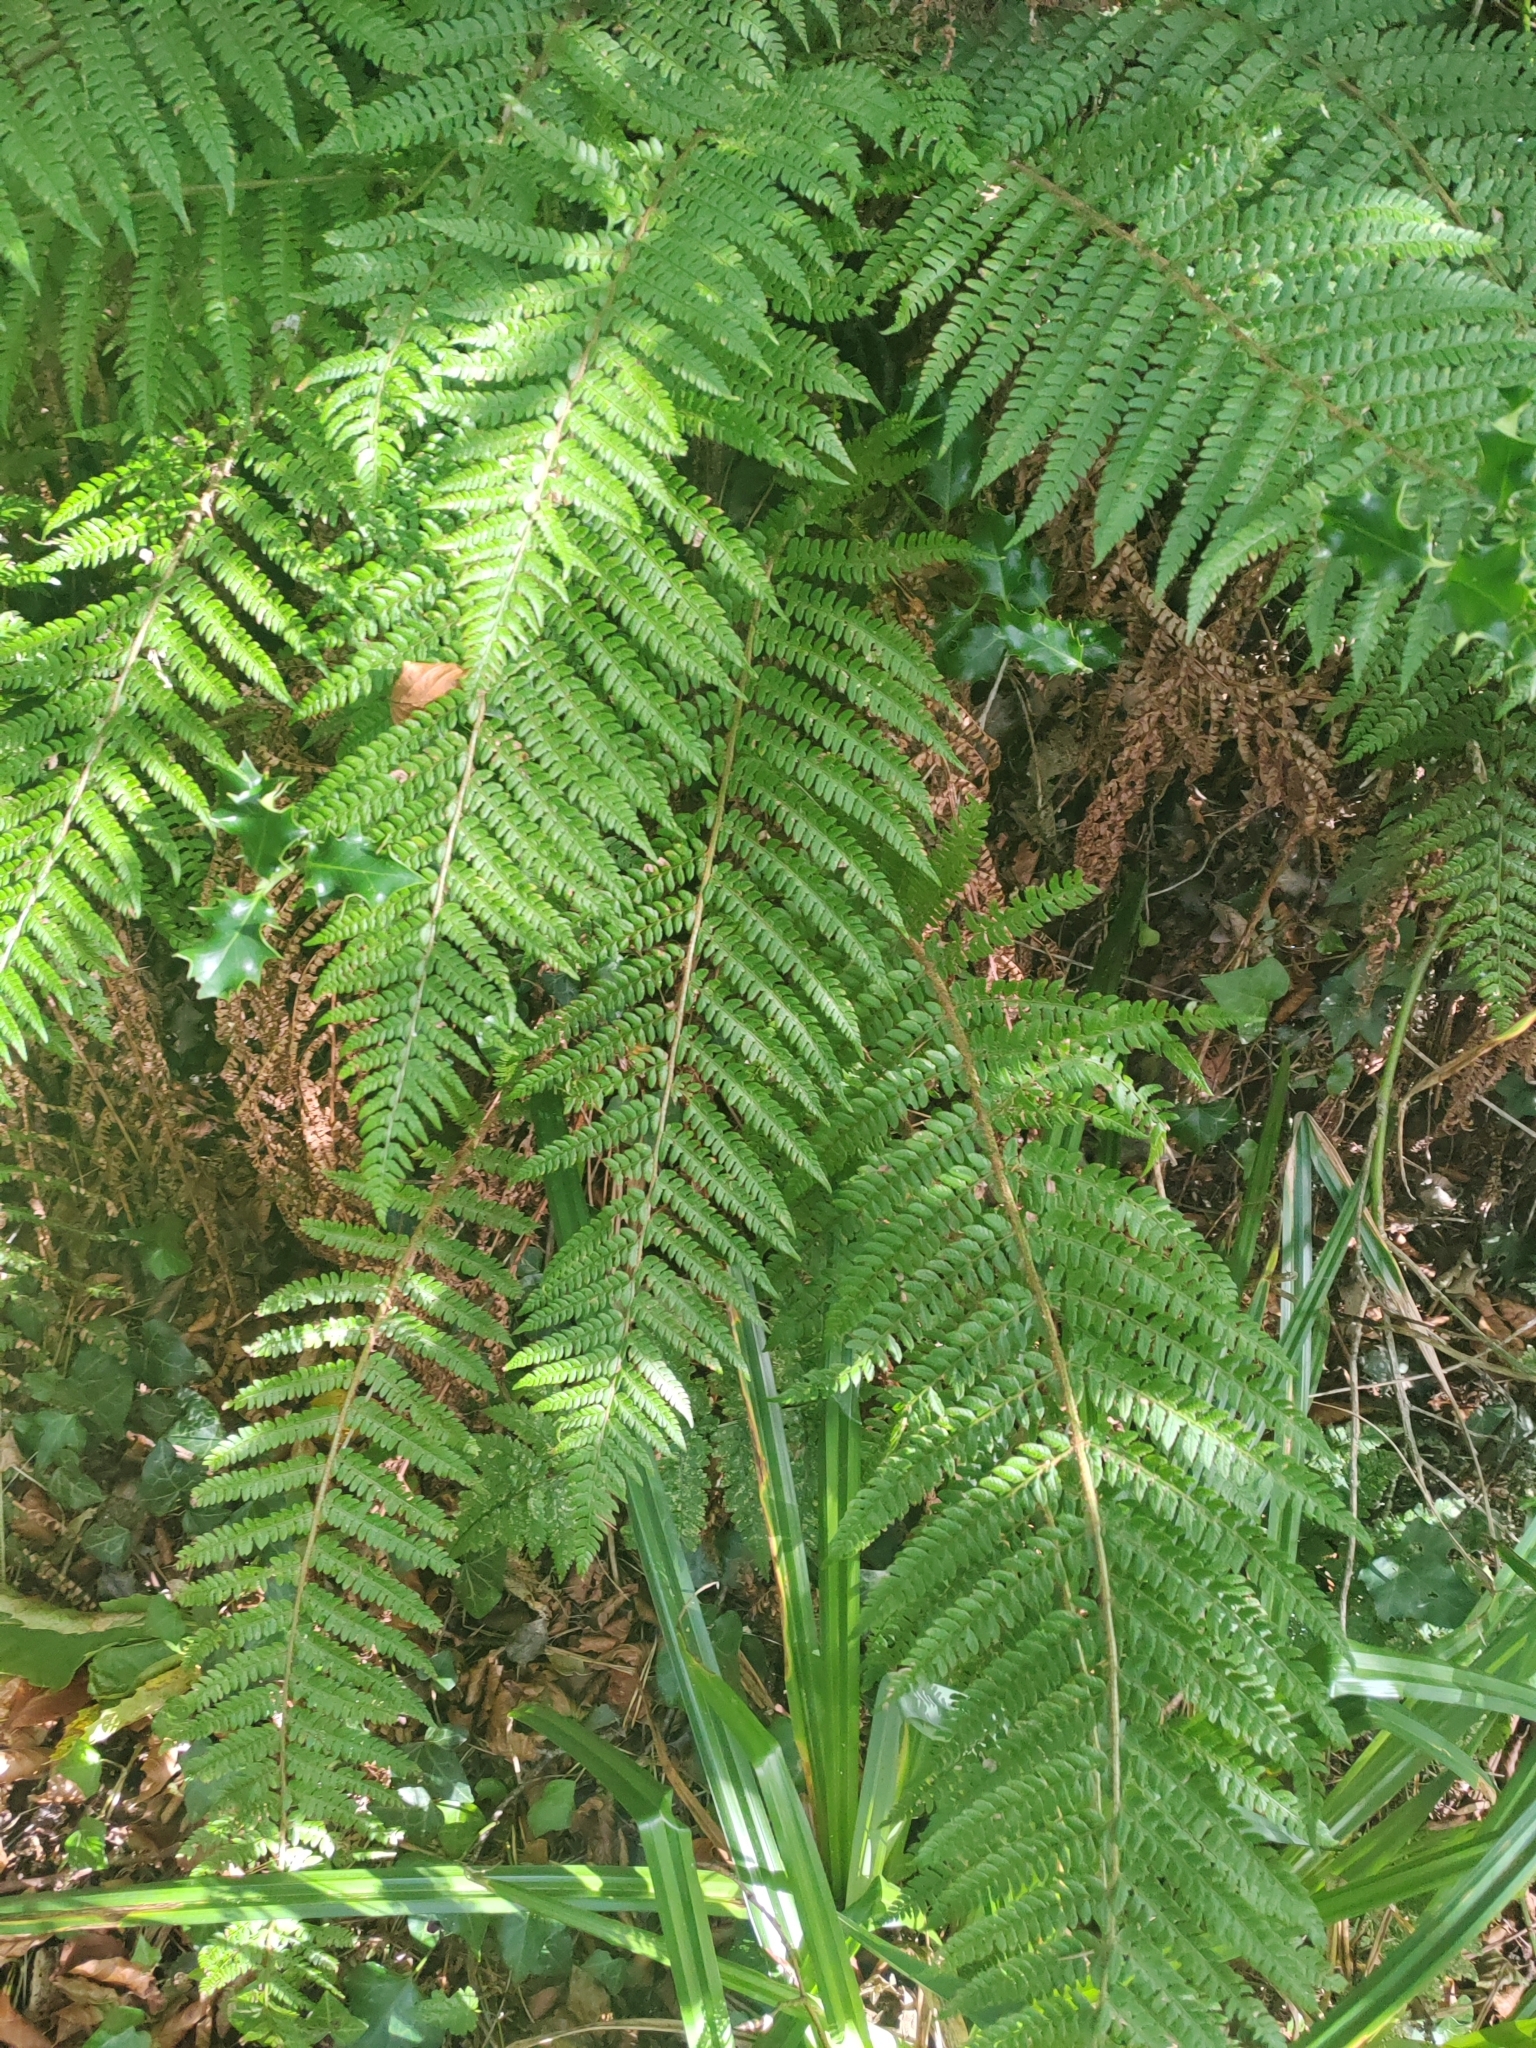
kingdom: Plantae
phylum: Tracheophyta
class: Polypodiopsida
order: Polypodiales
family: Dryopteridaceae
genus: Polystichum
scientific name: Polystichum setiferum
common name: Soft shield-fern
